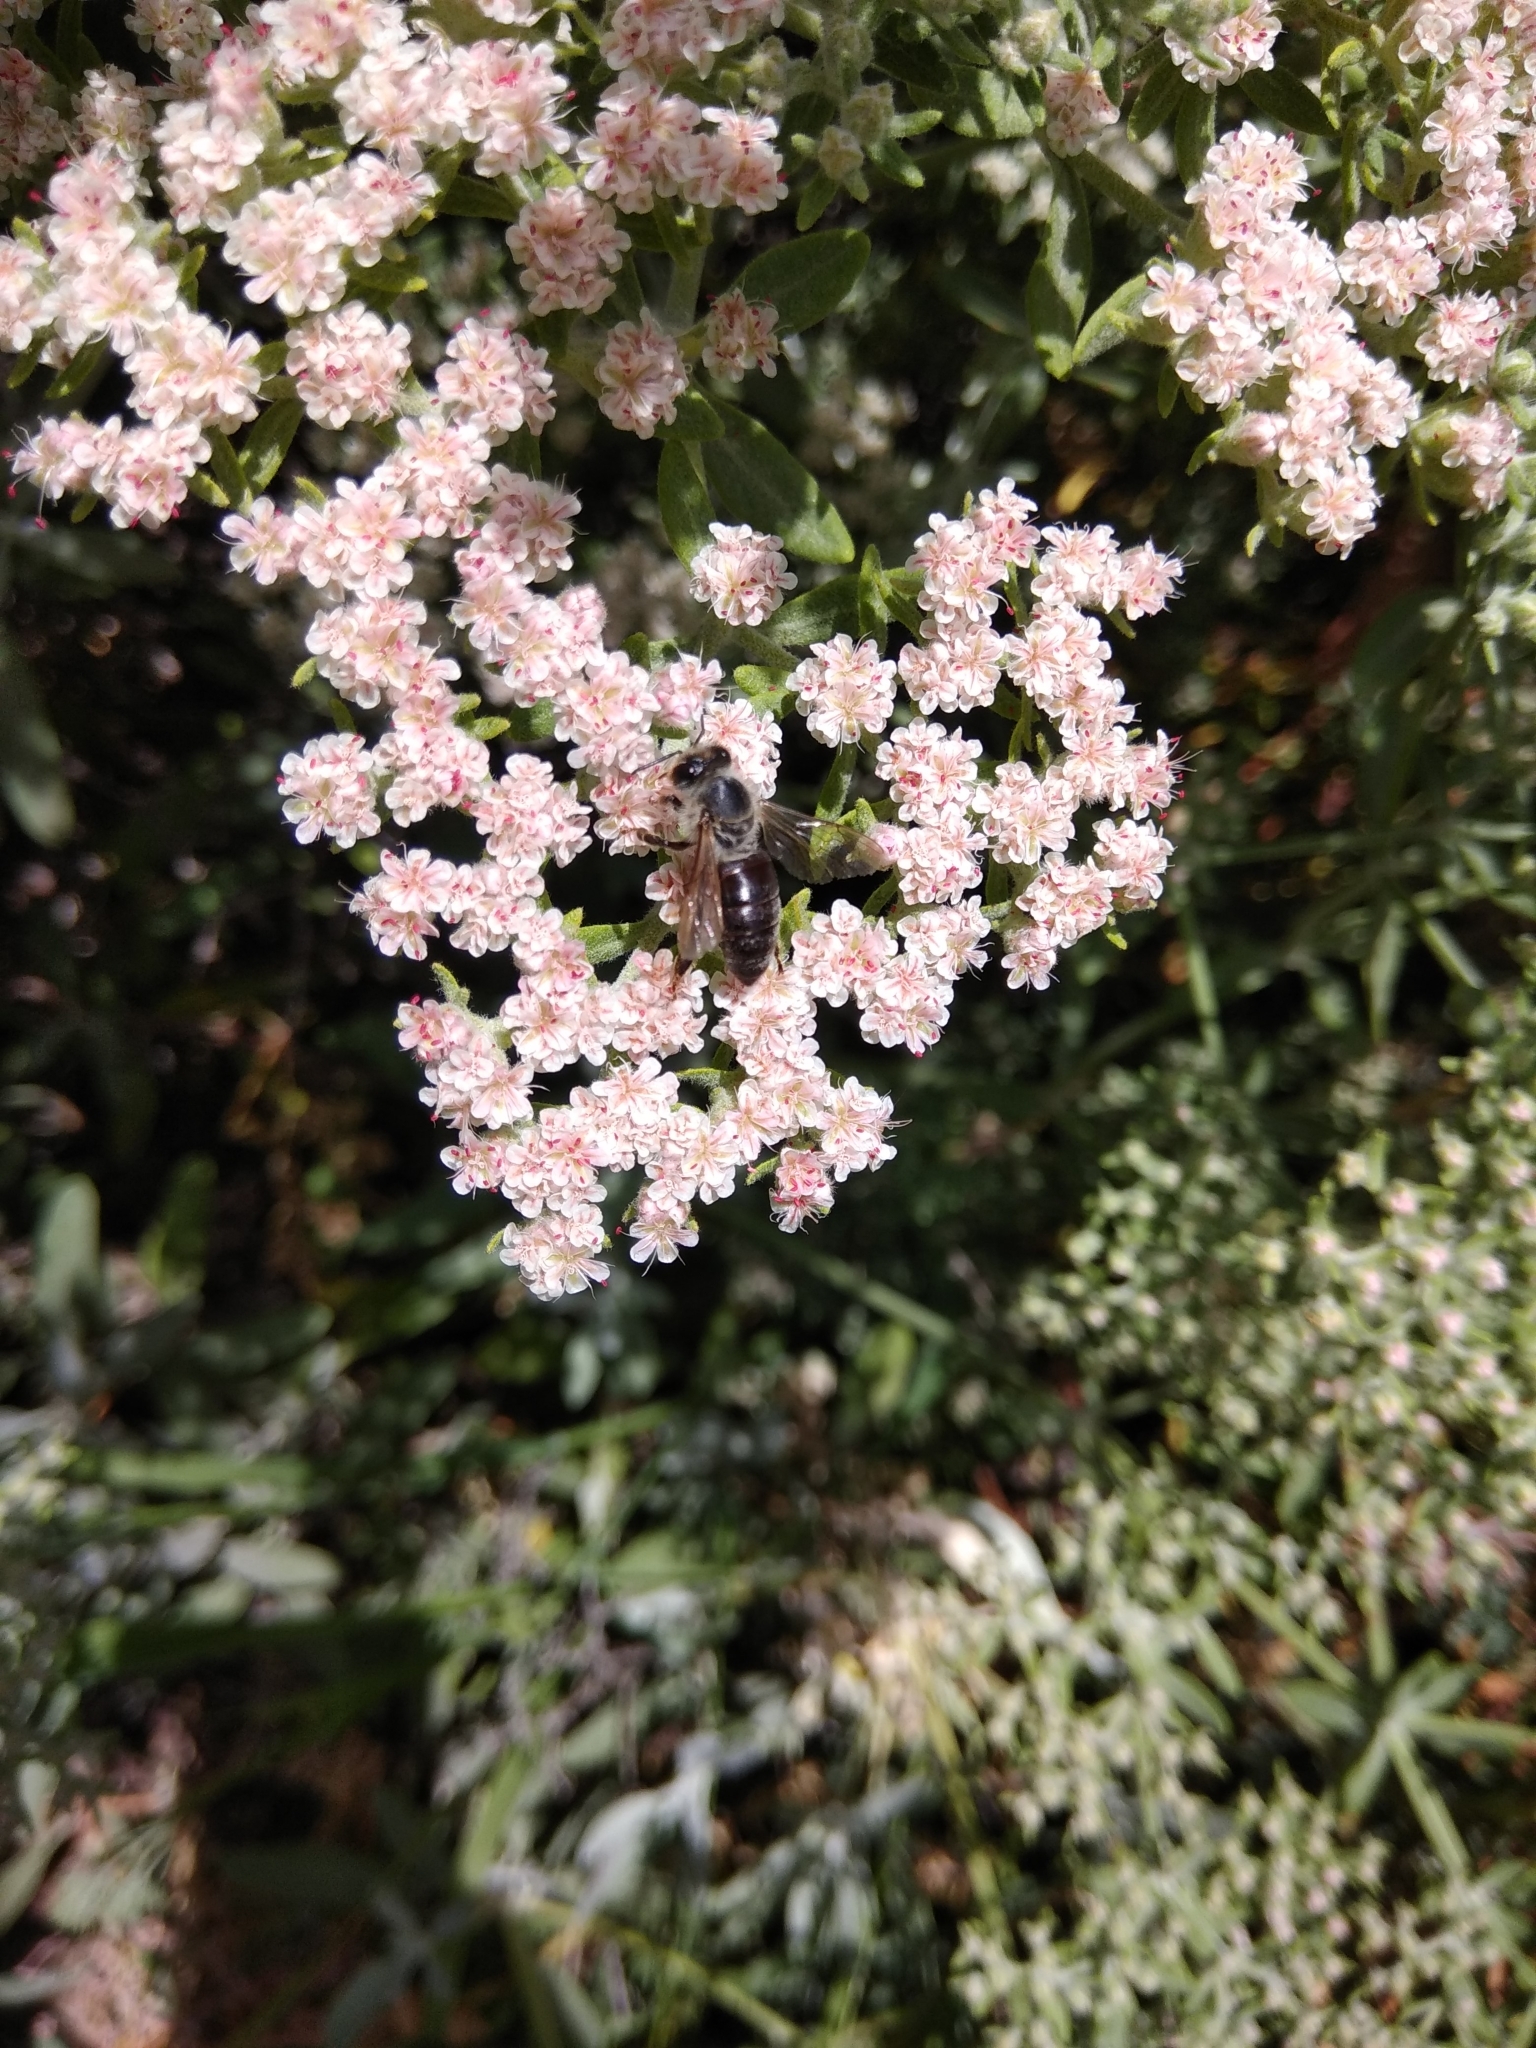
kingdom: Animalia
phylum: Arthropoda
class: Insecta
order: Hymenoptera
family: Apidae
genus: Apis
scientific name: Apis mellifera
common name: Honey bee
